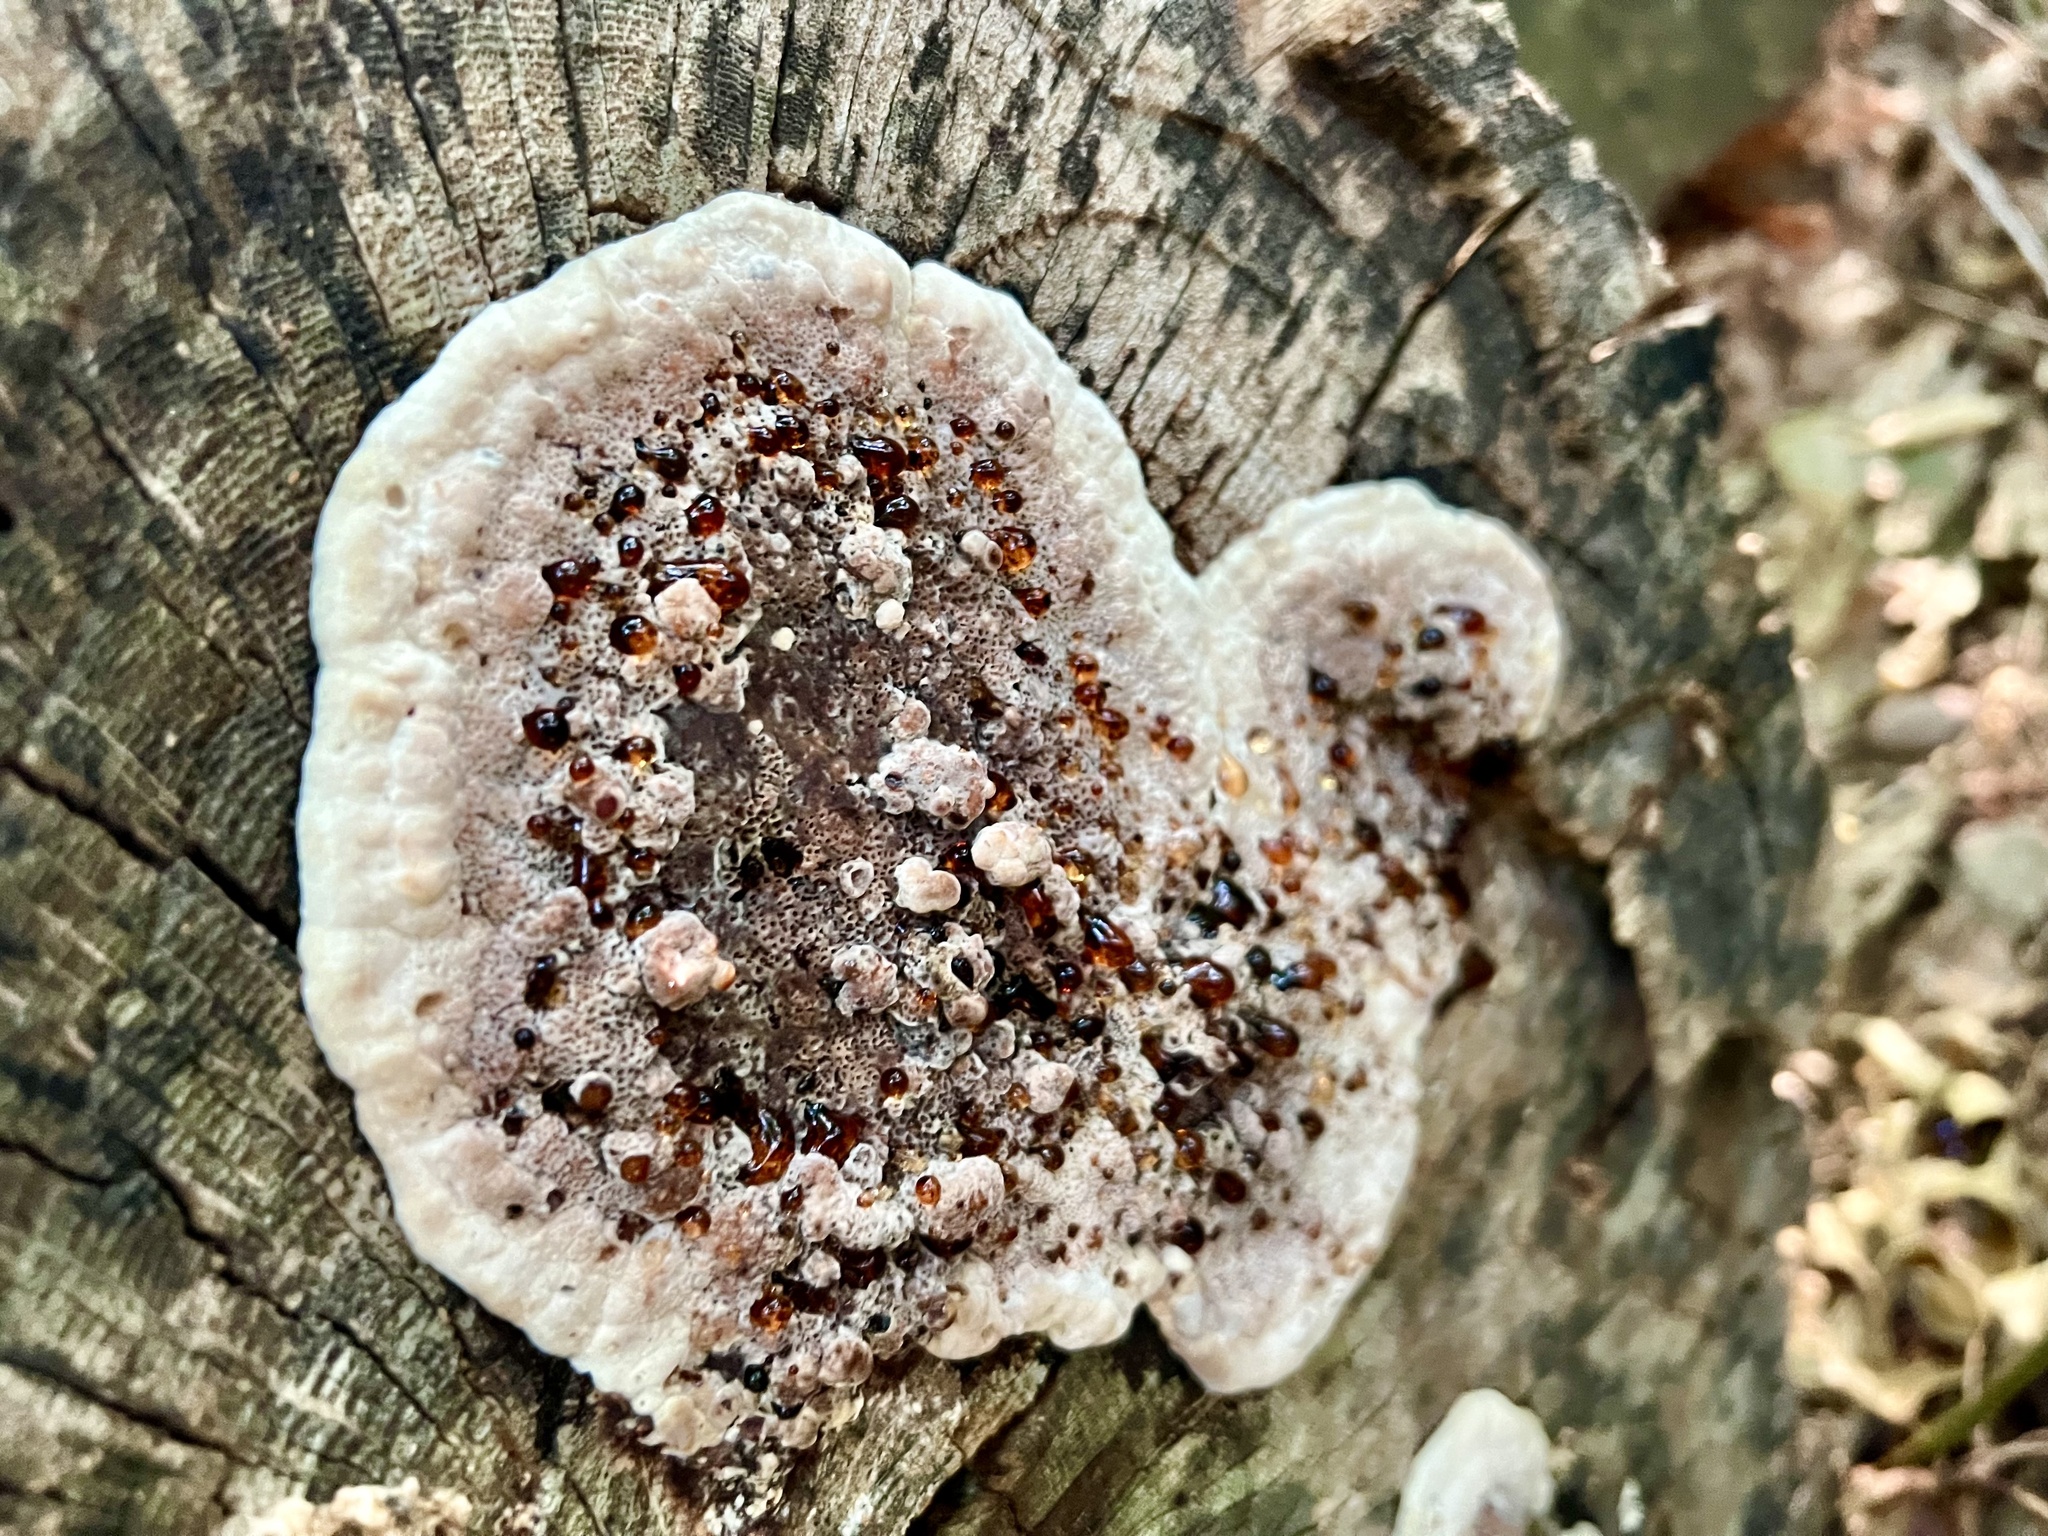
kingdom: Fungi
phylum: Basidiomycota
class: Agaricomycetes
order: Hymenochaetales
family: Hymenochaetaceae
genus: Pseudoinonotus
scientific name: Pseudoinonotus dryadeus
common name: Oak bracket
